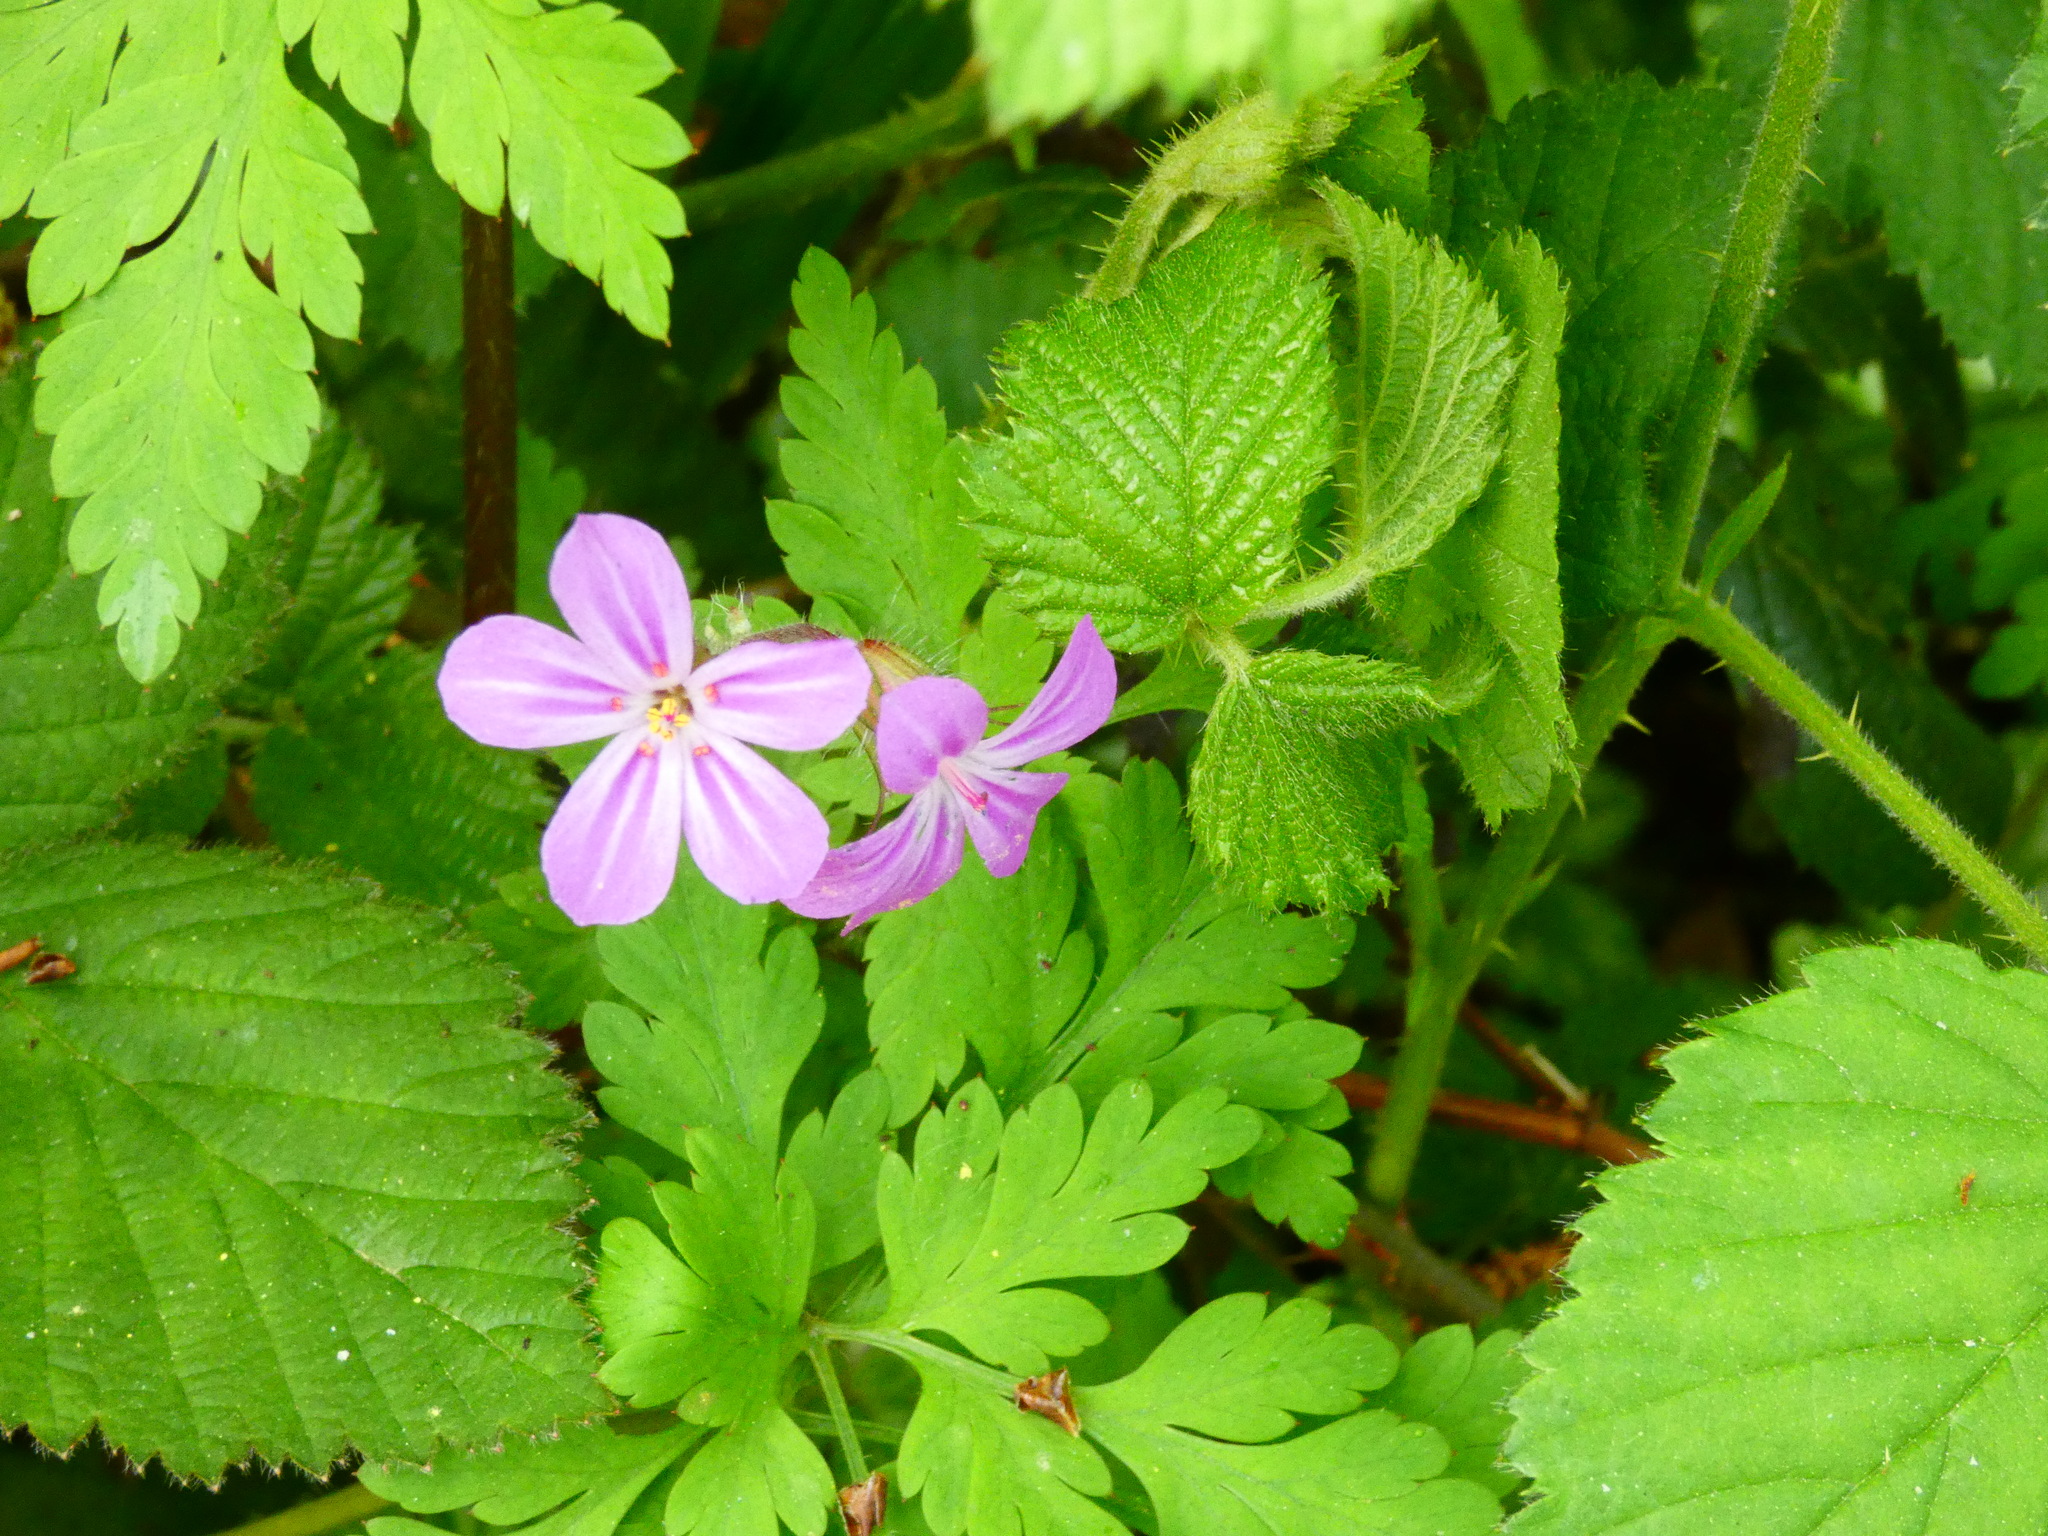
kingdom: Plantae
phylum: Tracheophyta
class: Magnoliopsida
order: Geraniales
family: Geraniaceae
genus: Geranium
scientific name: Geranium robertianum
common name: Herb-robert
